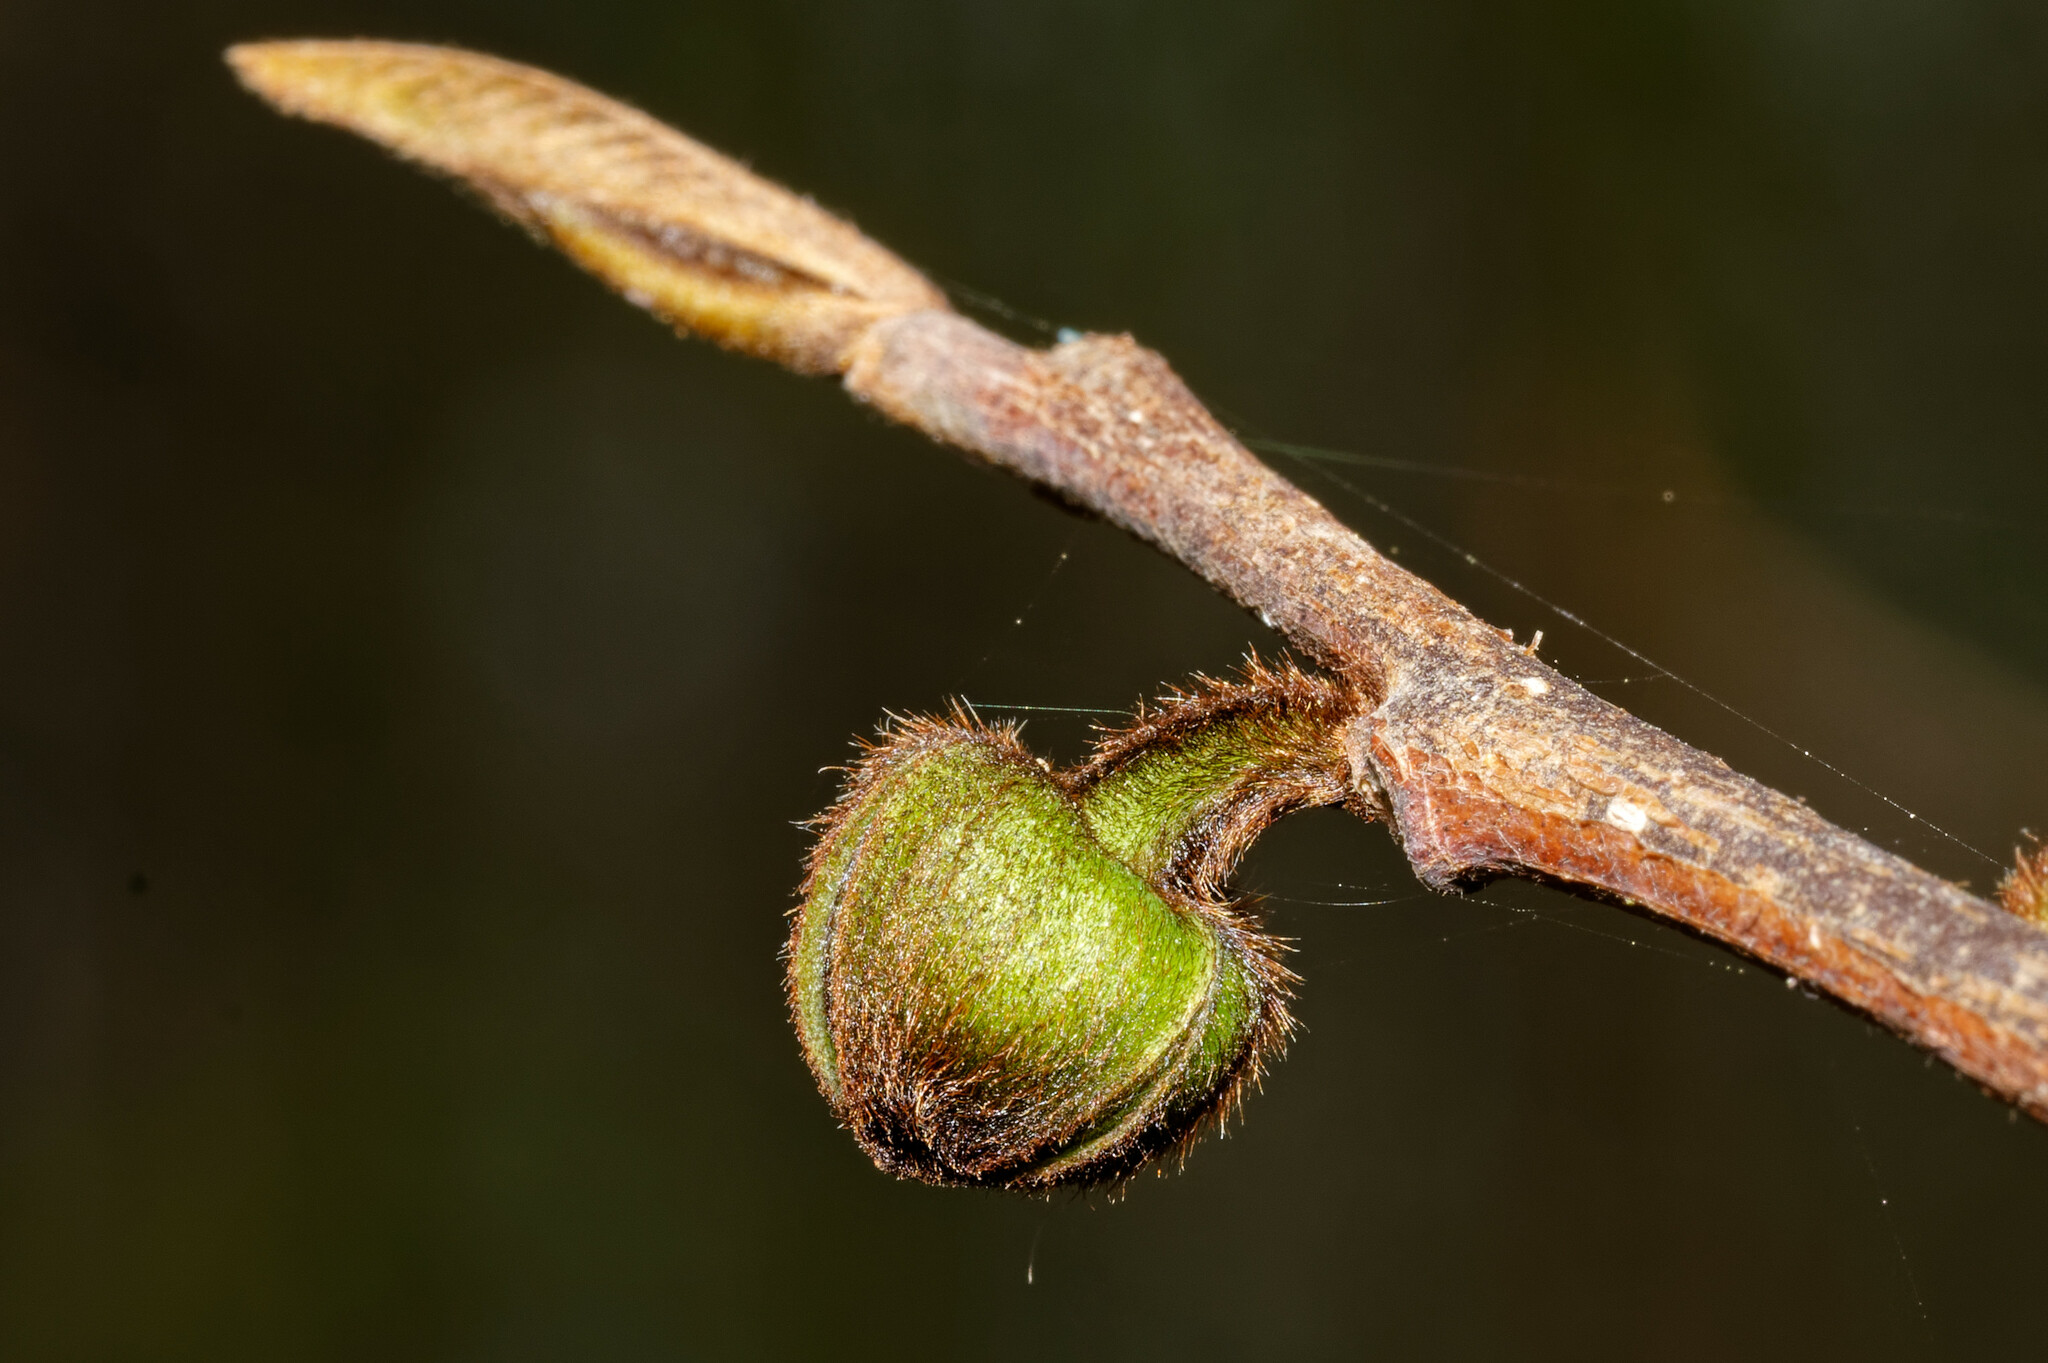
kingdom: Plantae
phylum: Tracheophyta
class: Magnoliopsida
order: Magnoliales
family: Annonaceae
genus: Asimina
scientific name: Asimina triloba
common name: Dog-banana
